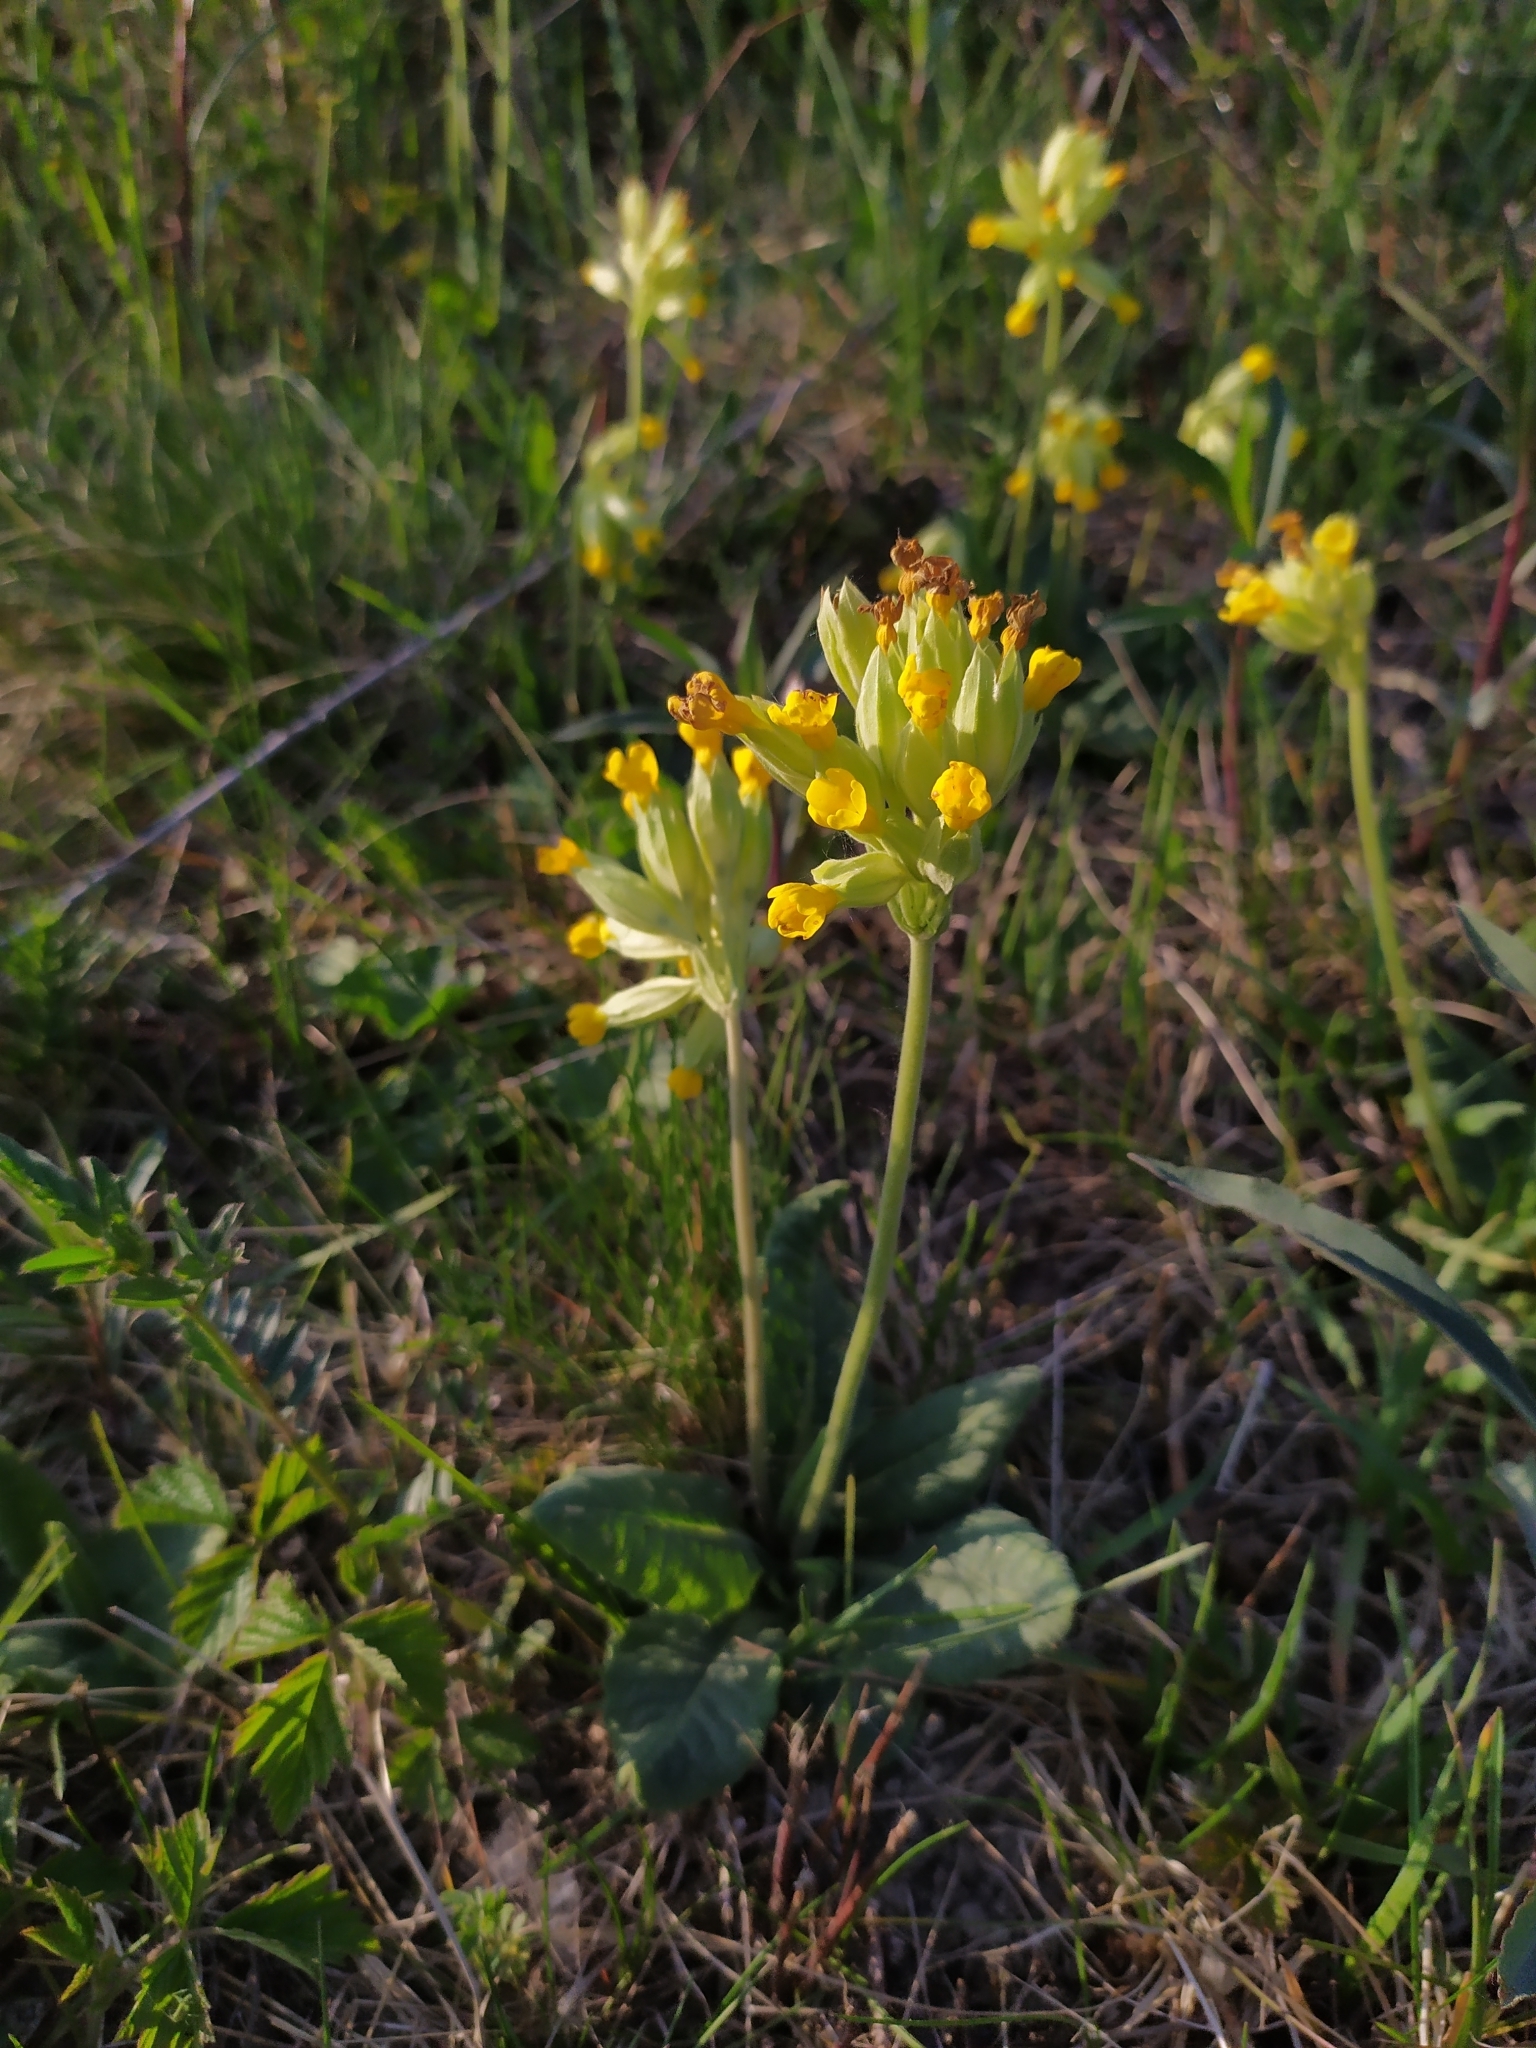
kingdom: Plantae
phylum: Tracheophyta
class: Magnoliopsida
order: Ericales
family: Primulaceae
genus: Primula
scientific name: Primula veris
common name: Cowslip
